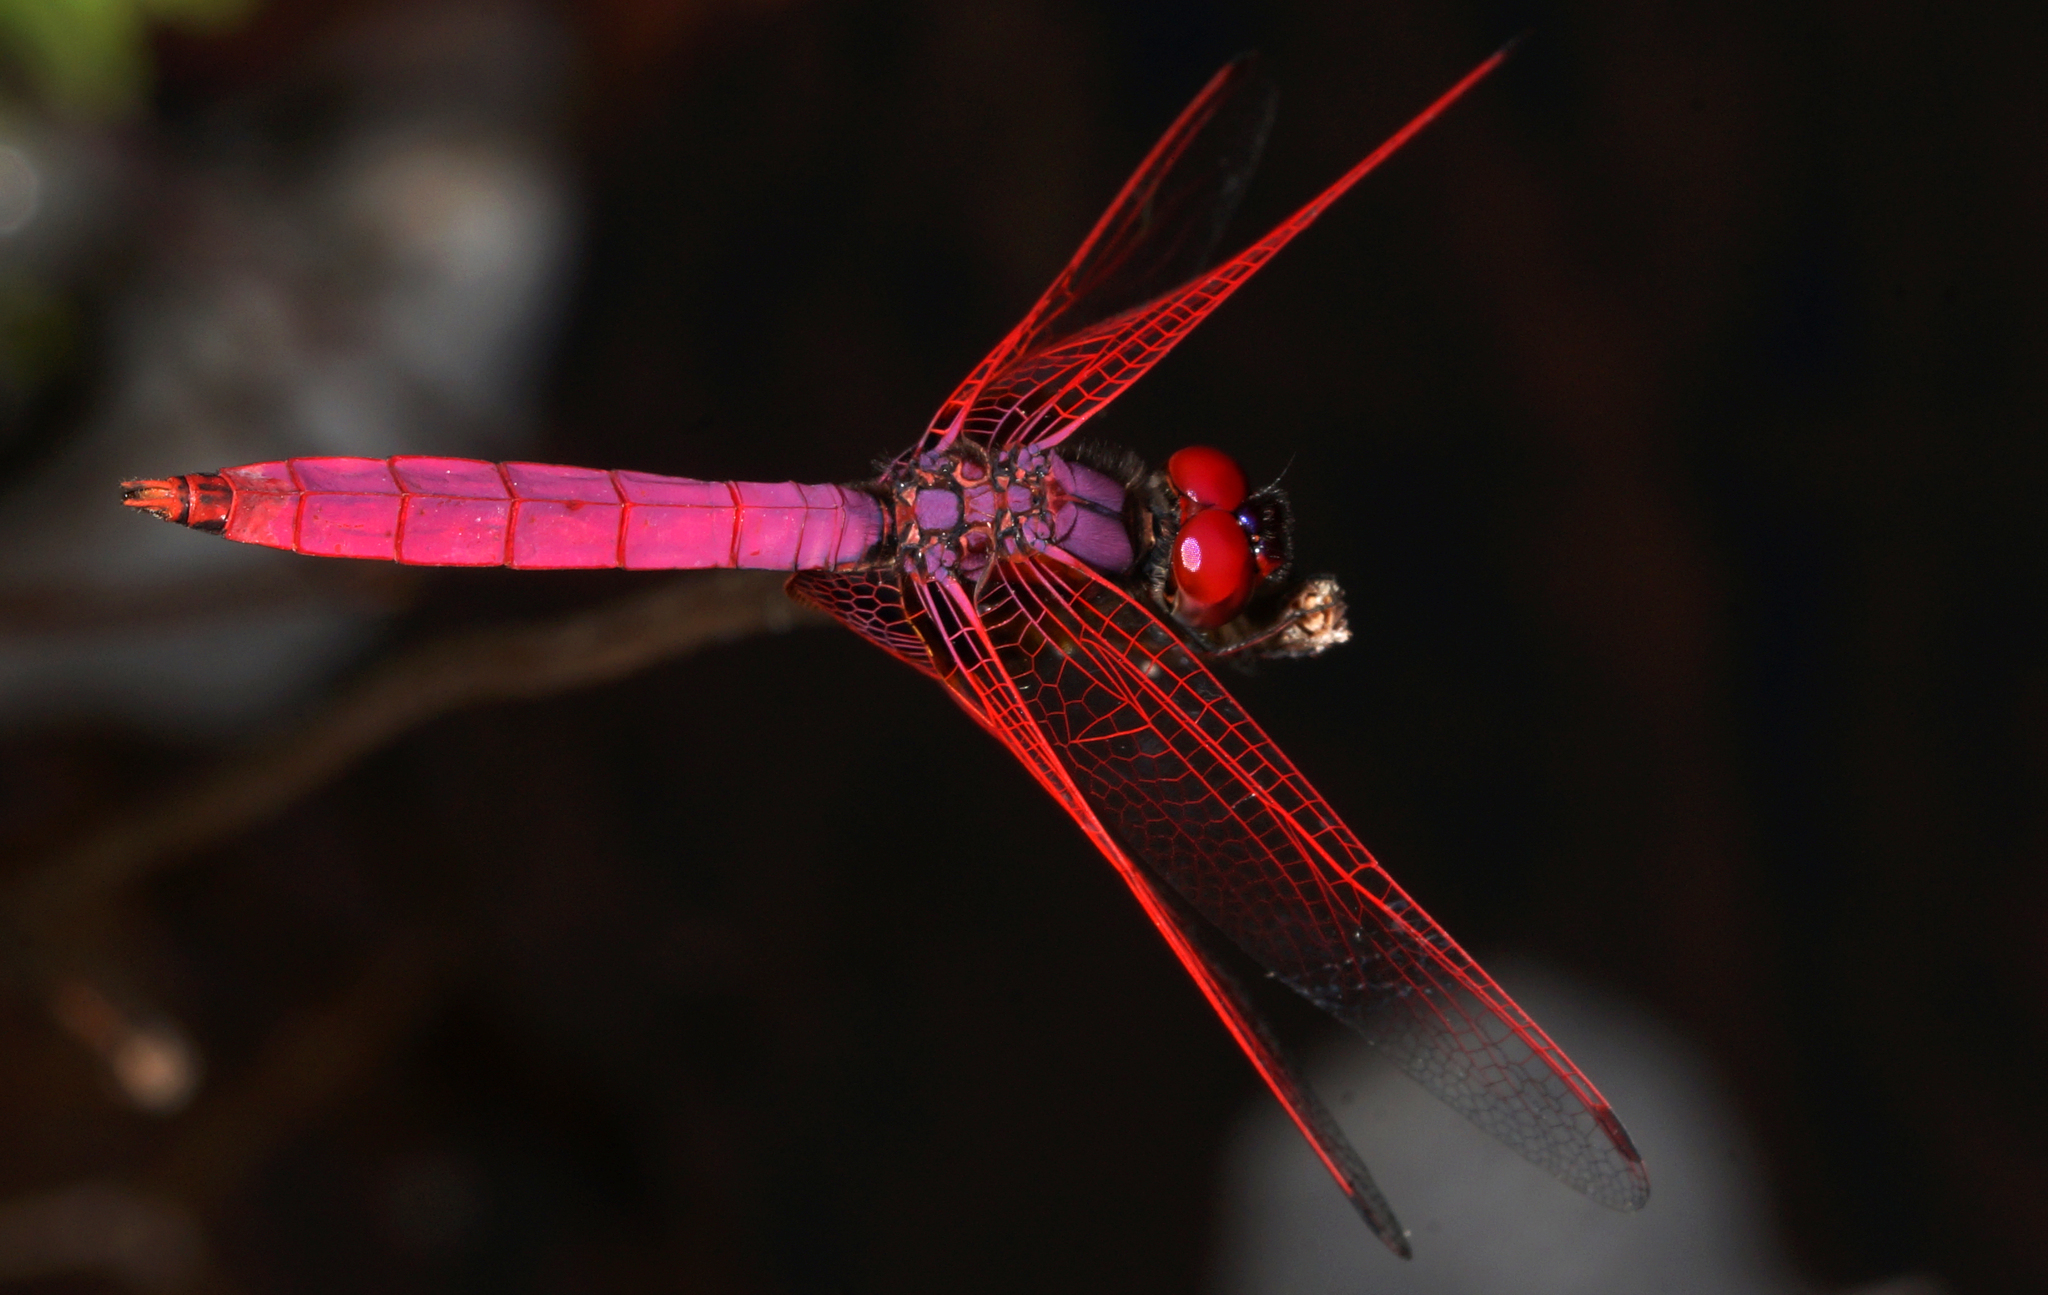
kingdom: Animalia
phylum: Arthropoda
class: Insecta
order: Odonata
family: Libellulidae
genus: Trithemis
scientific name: Trithemis aurora
